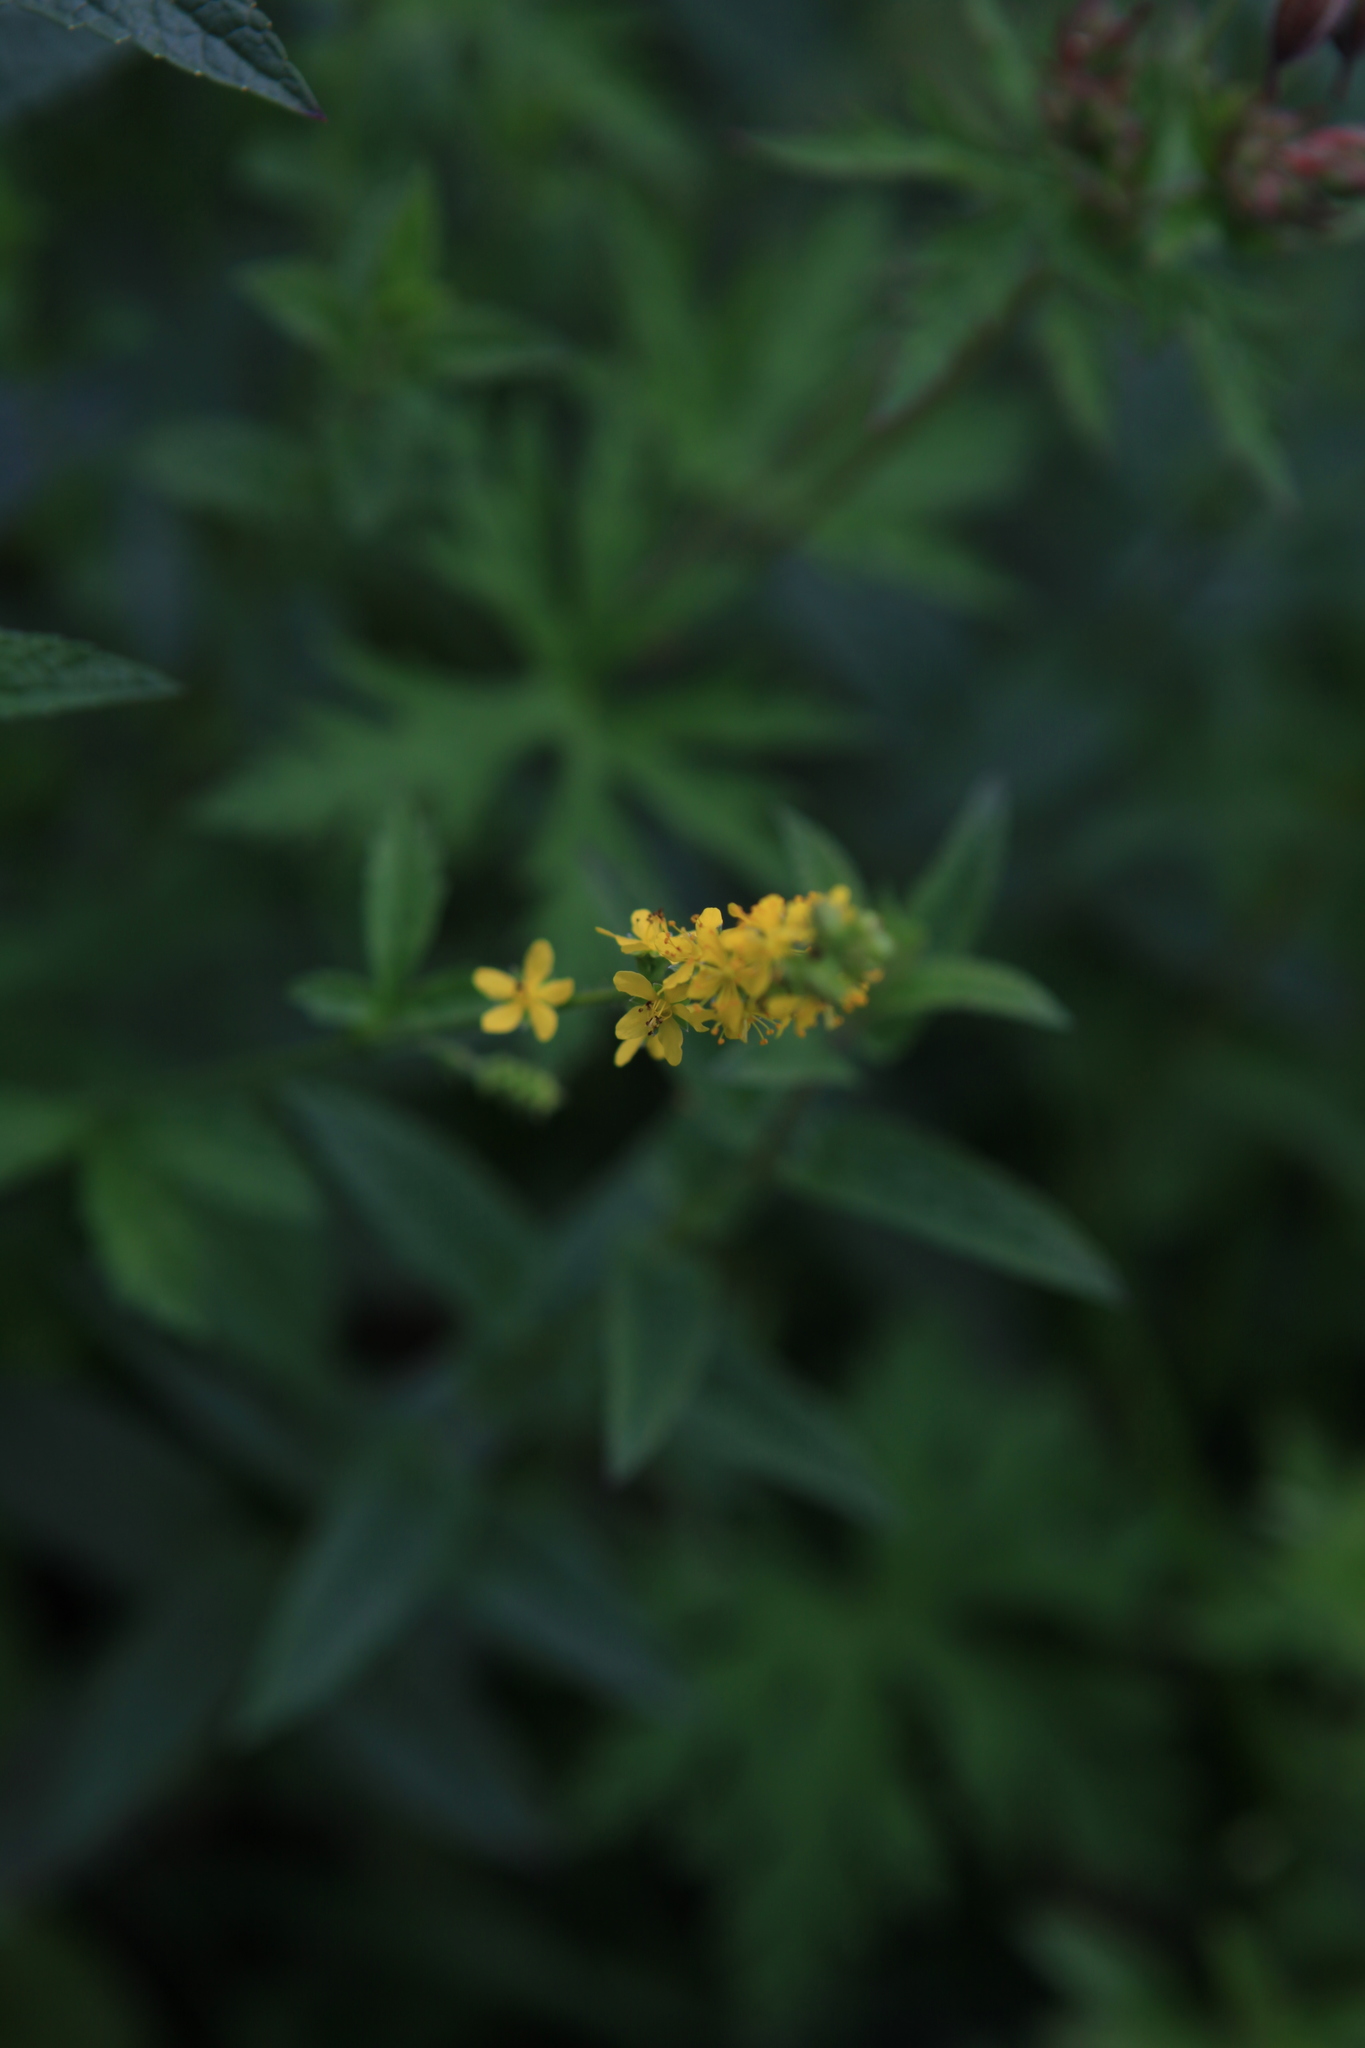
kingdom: Plantae
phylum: Tracheophyta
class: Magnoliopsida
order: Rosales
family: Rosaceae
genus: Agrimonia
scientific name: Agrimonia pilosa
